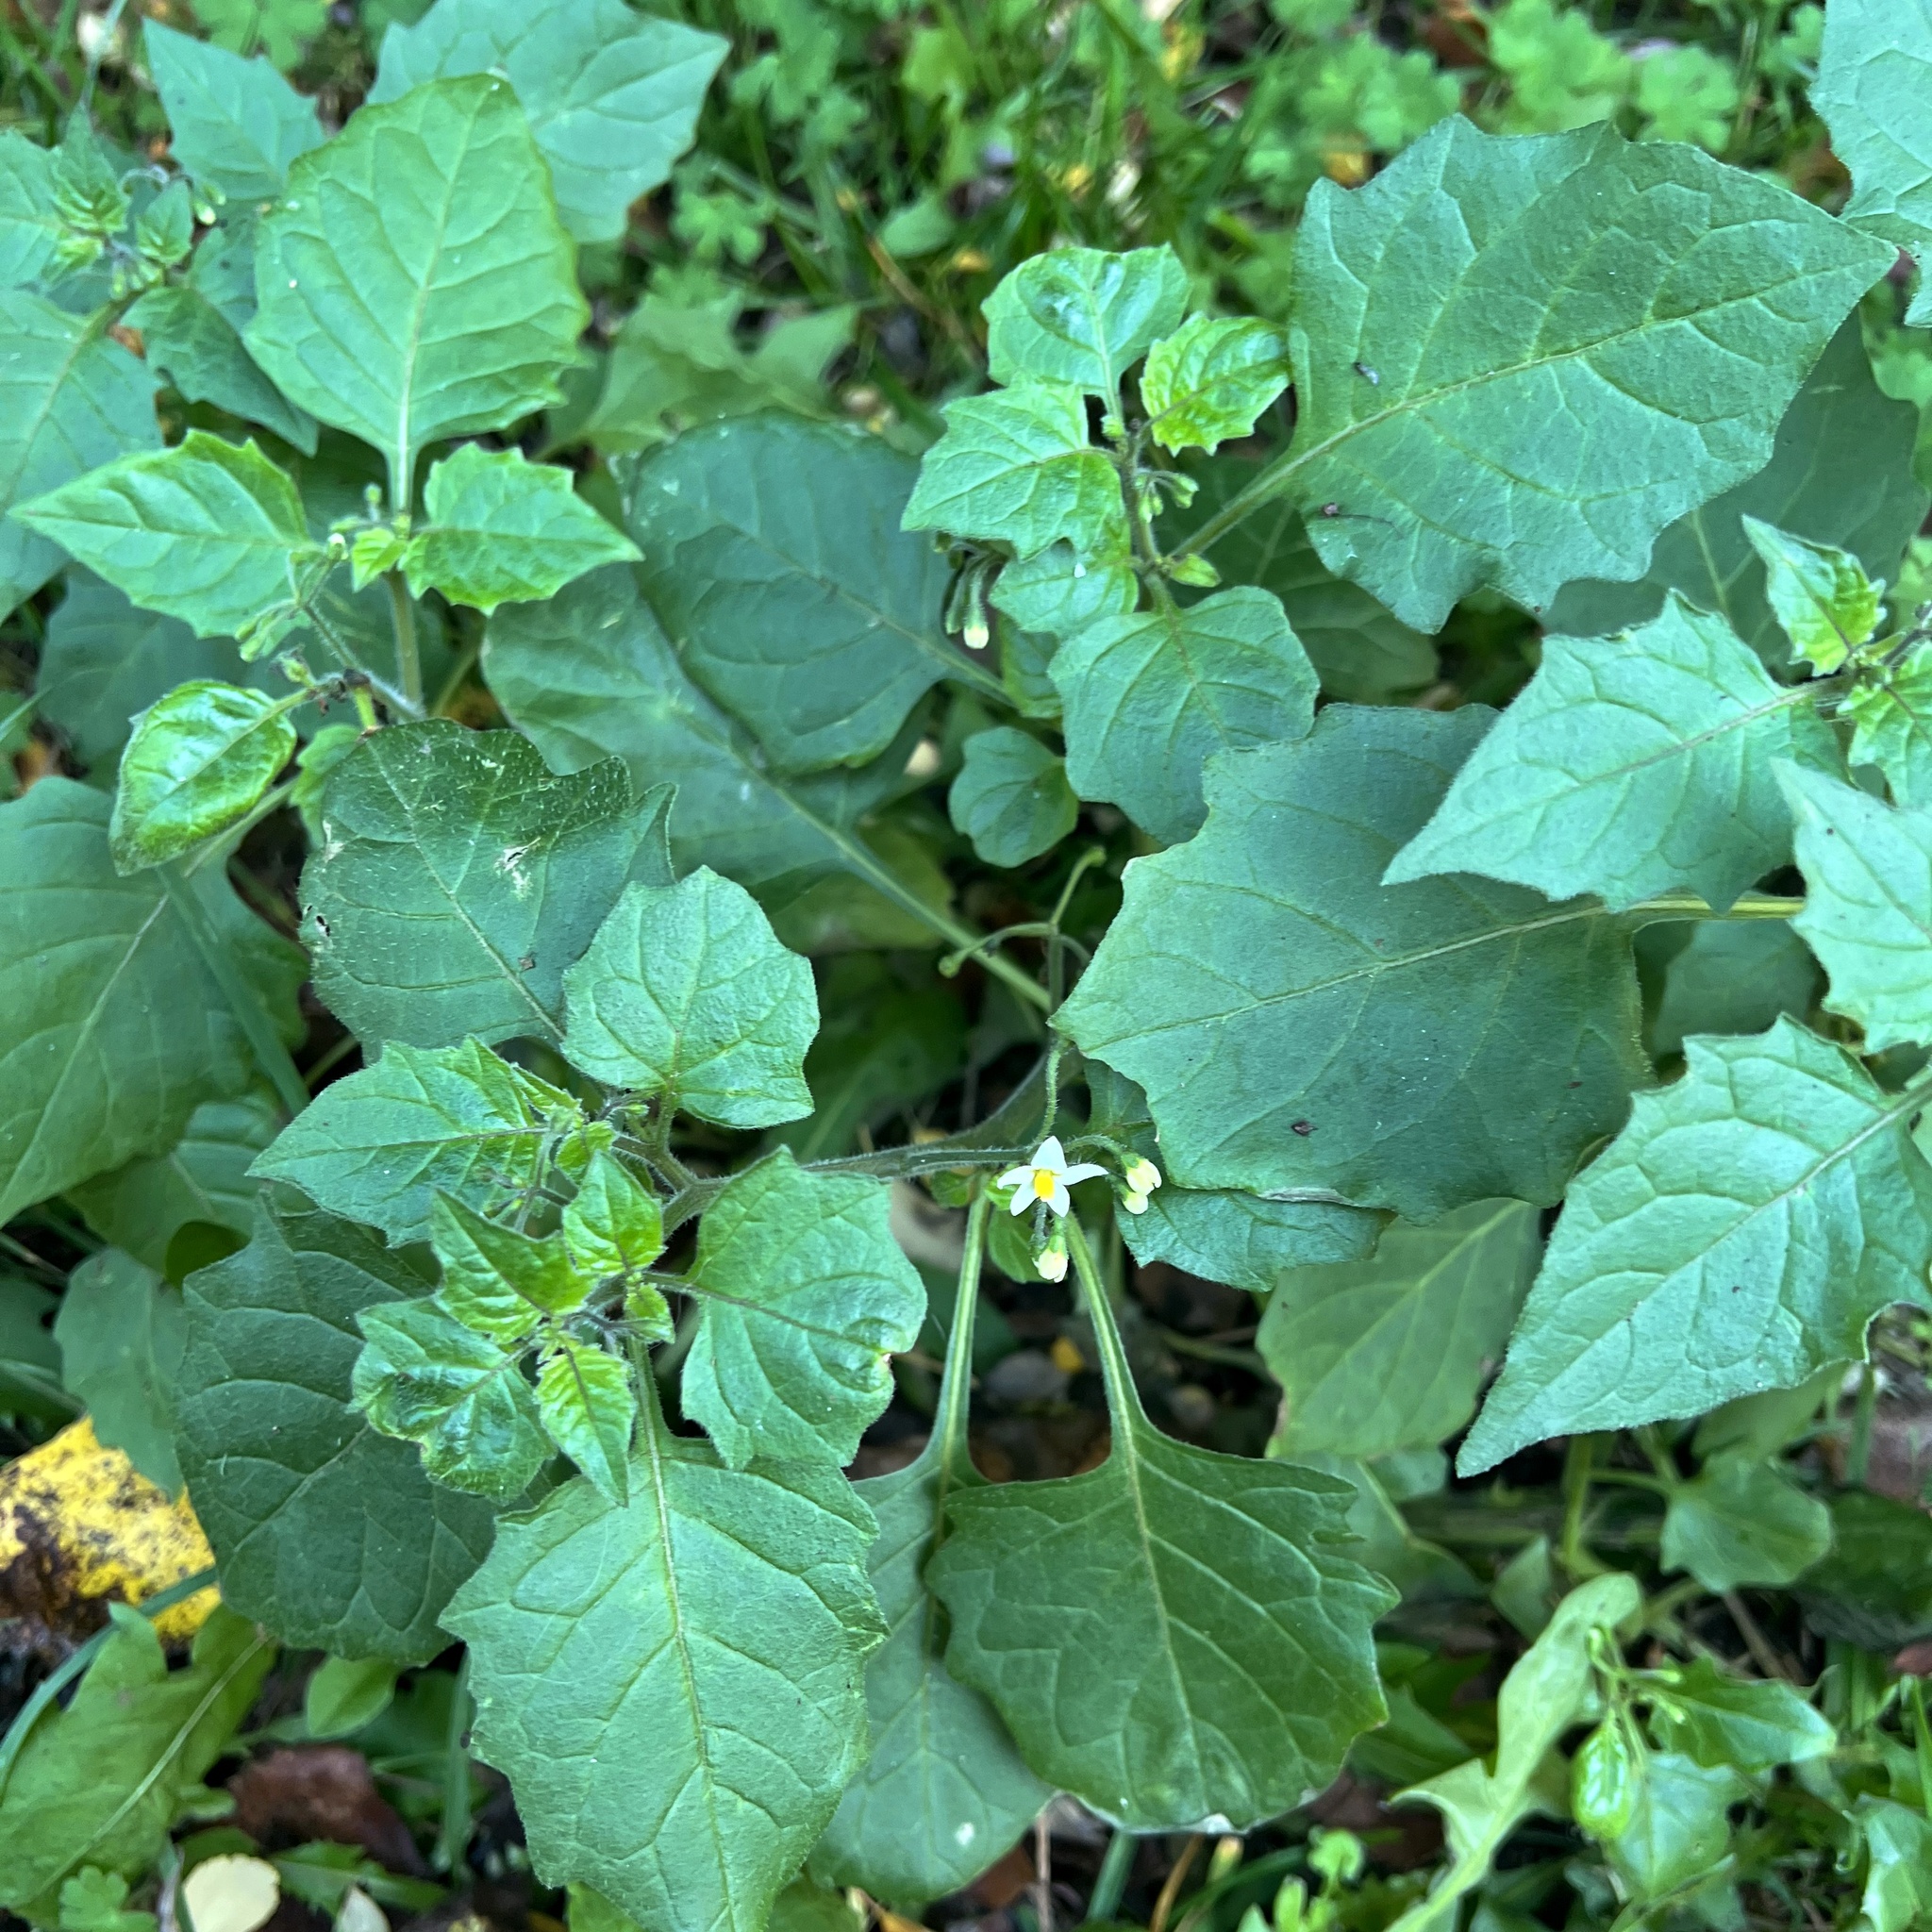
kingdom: Plantae
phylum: Tracheophyta
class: Magnoliopsida
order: Solanales
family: Solanaceae
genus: Solanum
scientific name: Solanum nigrum
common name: Black nightshade
